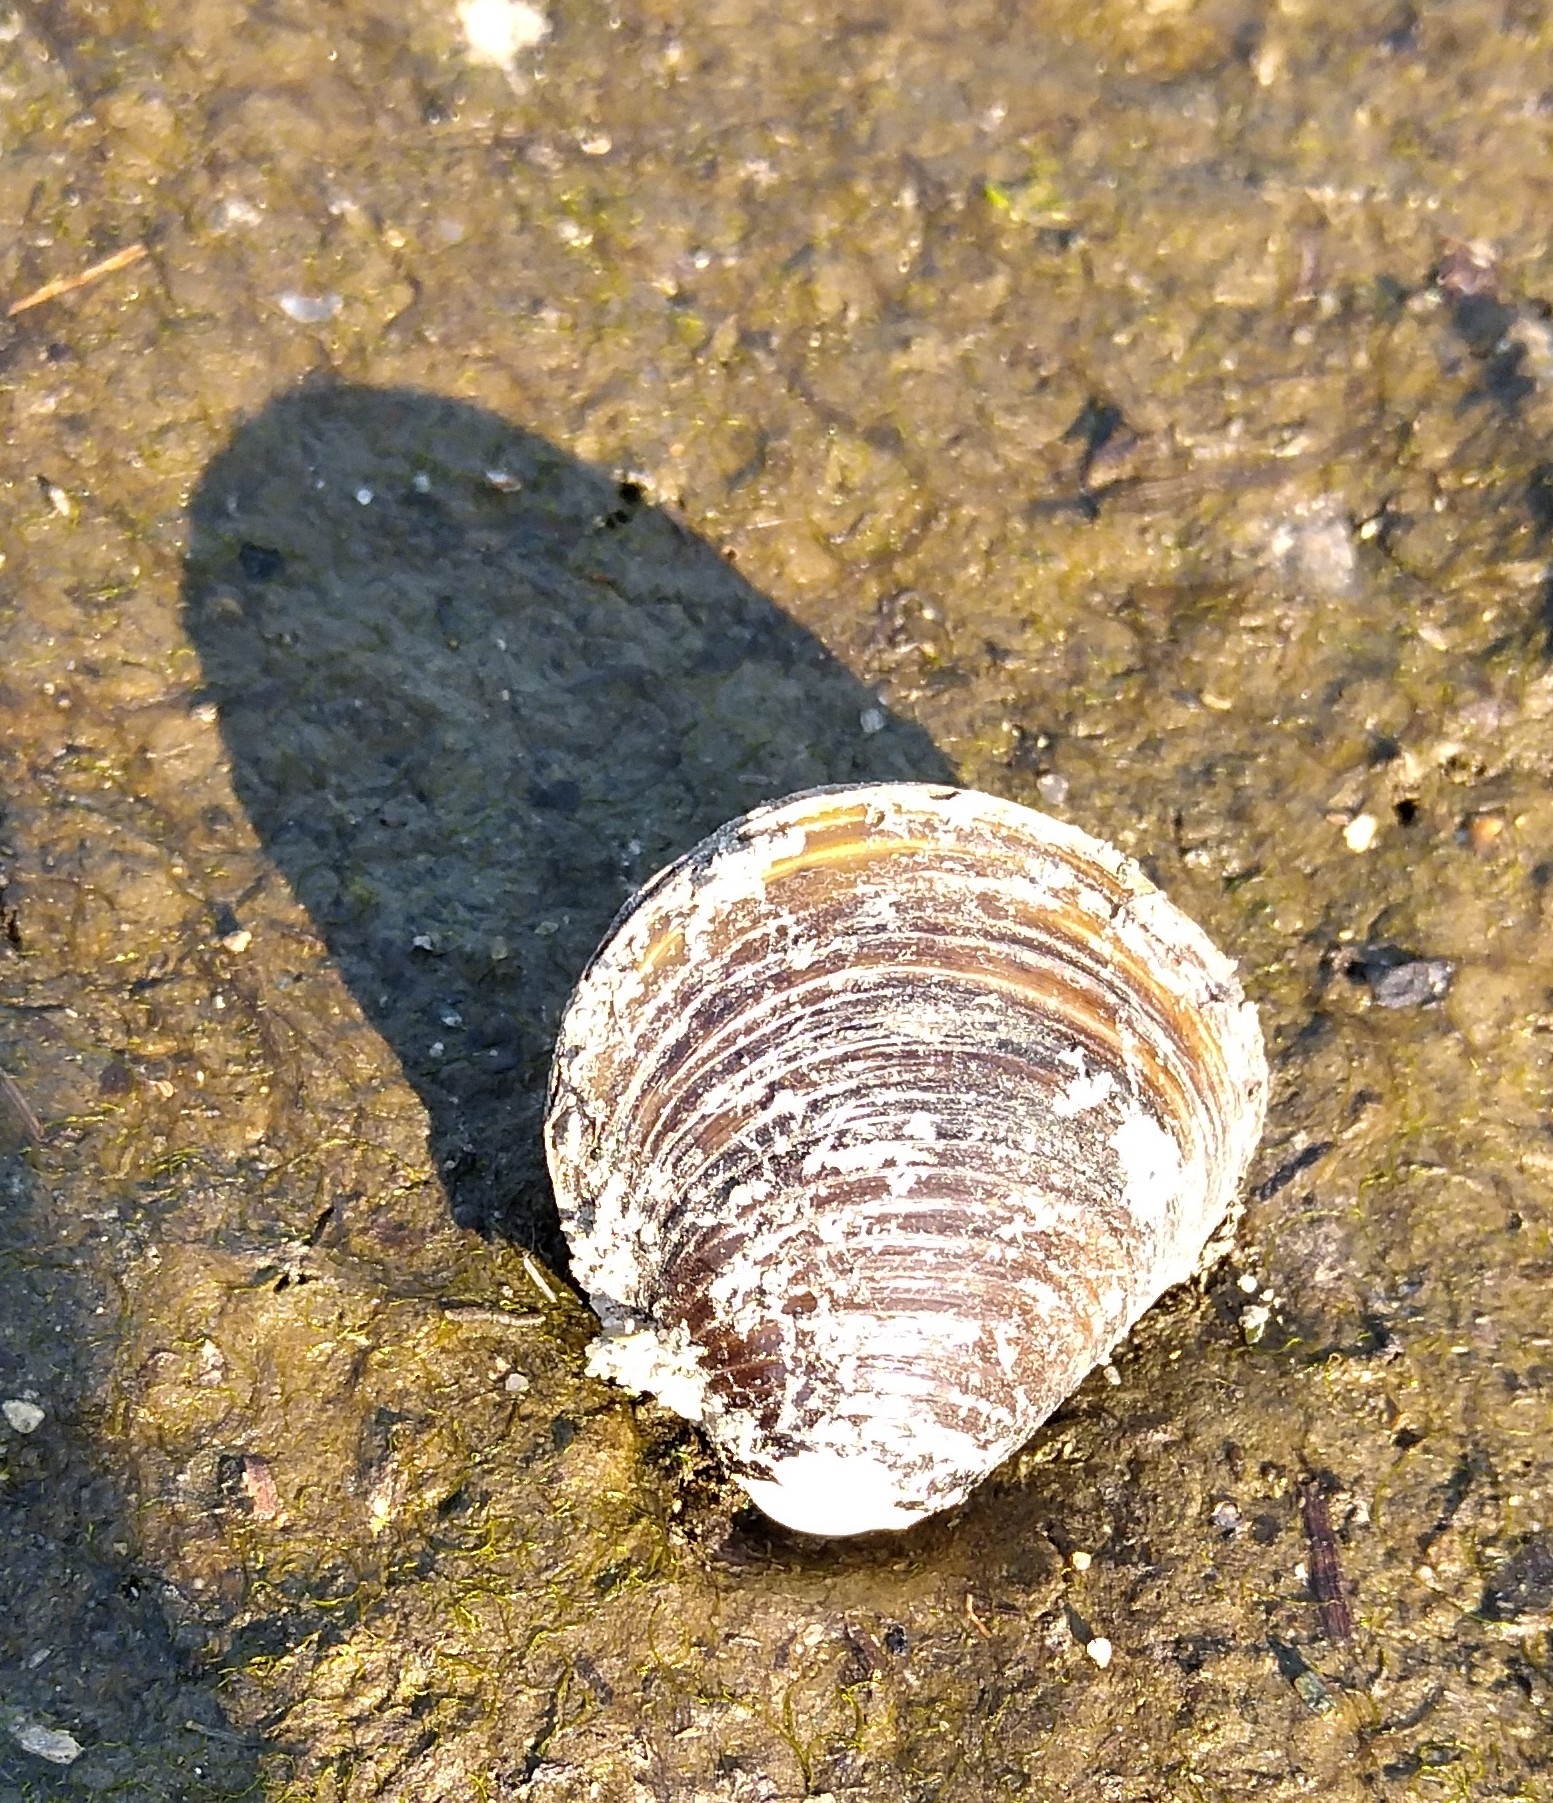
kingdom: Animalia
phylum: Mollusca
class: Bivalvia
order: Venerida
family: Cyrenidae
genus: Corbicula
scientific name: Corbicula fluminea
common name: Asian clam
